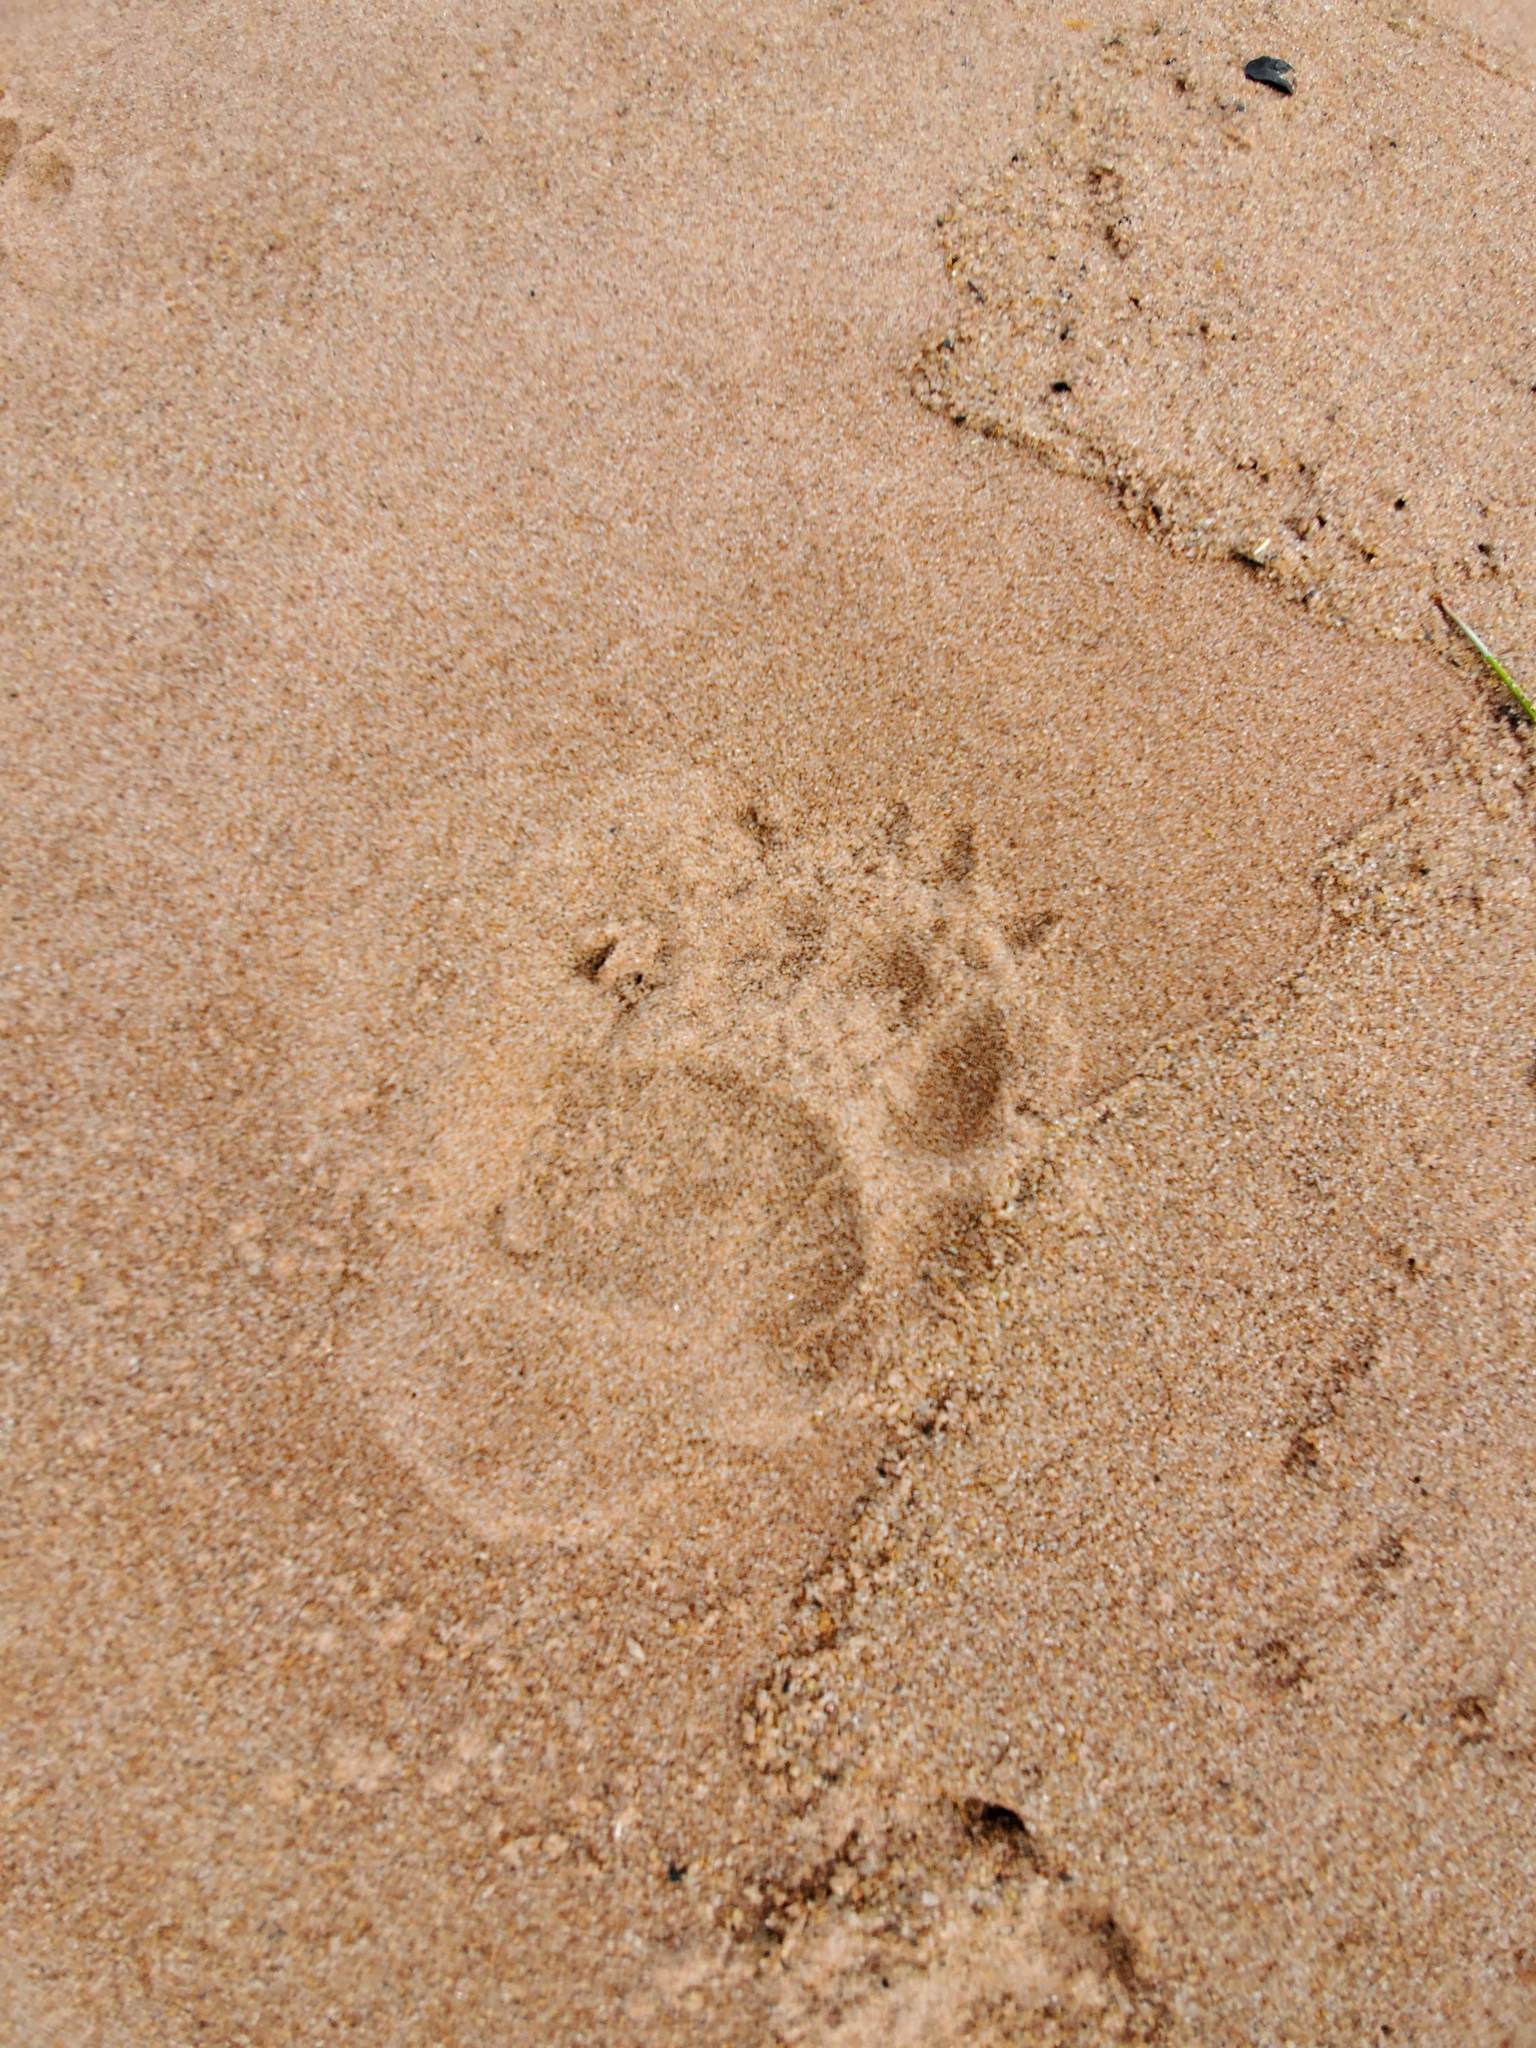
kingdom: Animalia
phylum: Chordata
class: Mammalia
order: Carnivora
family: Ursidae
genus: Ursus
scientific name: Ursus americanus
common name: American black bear
